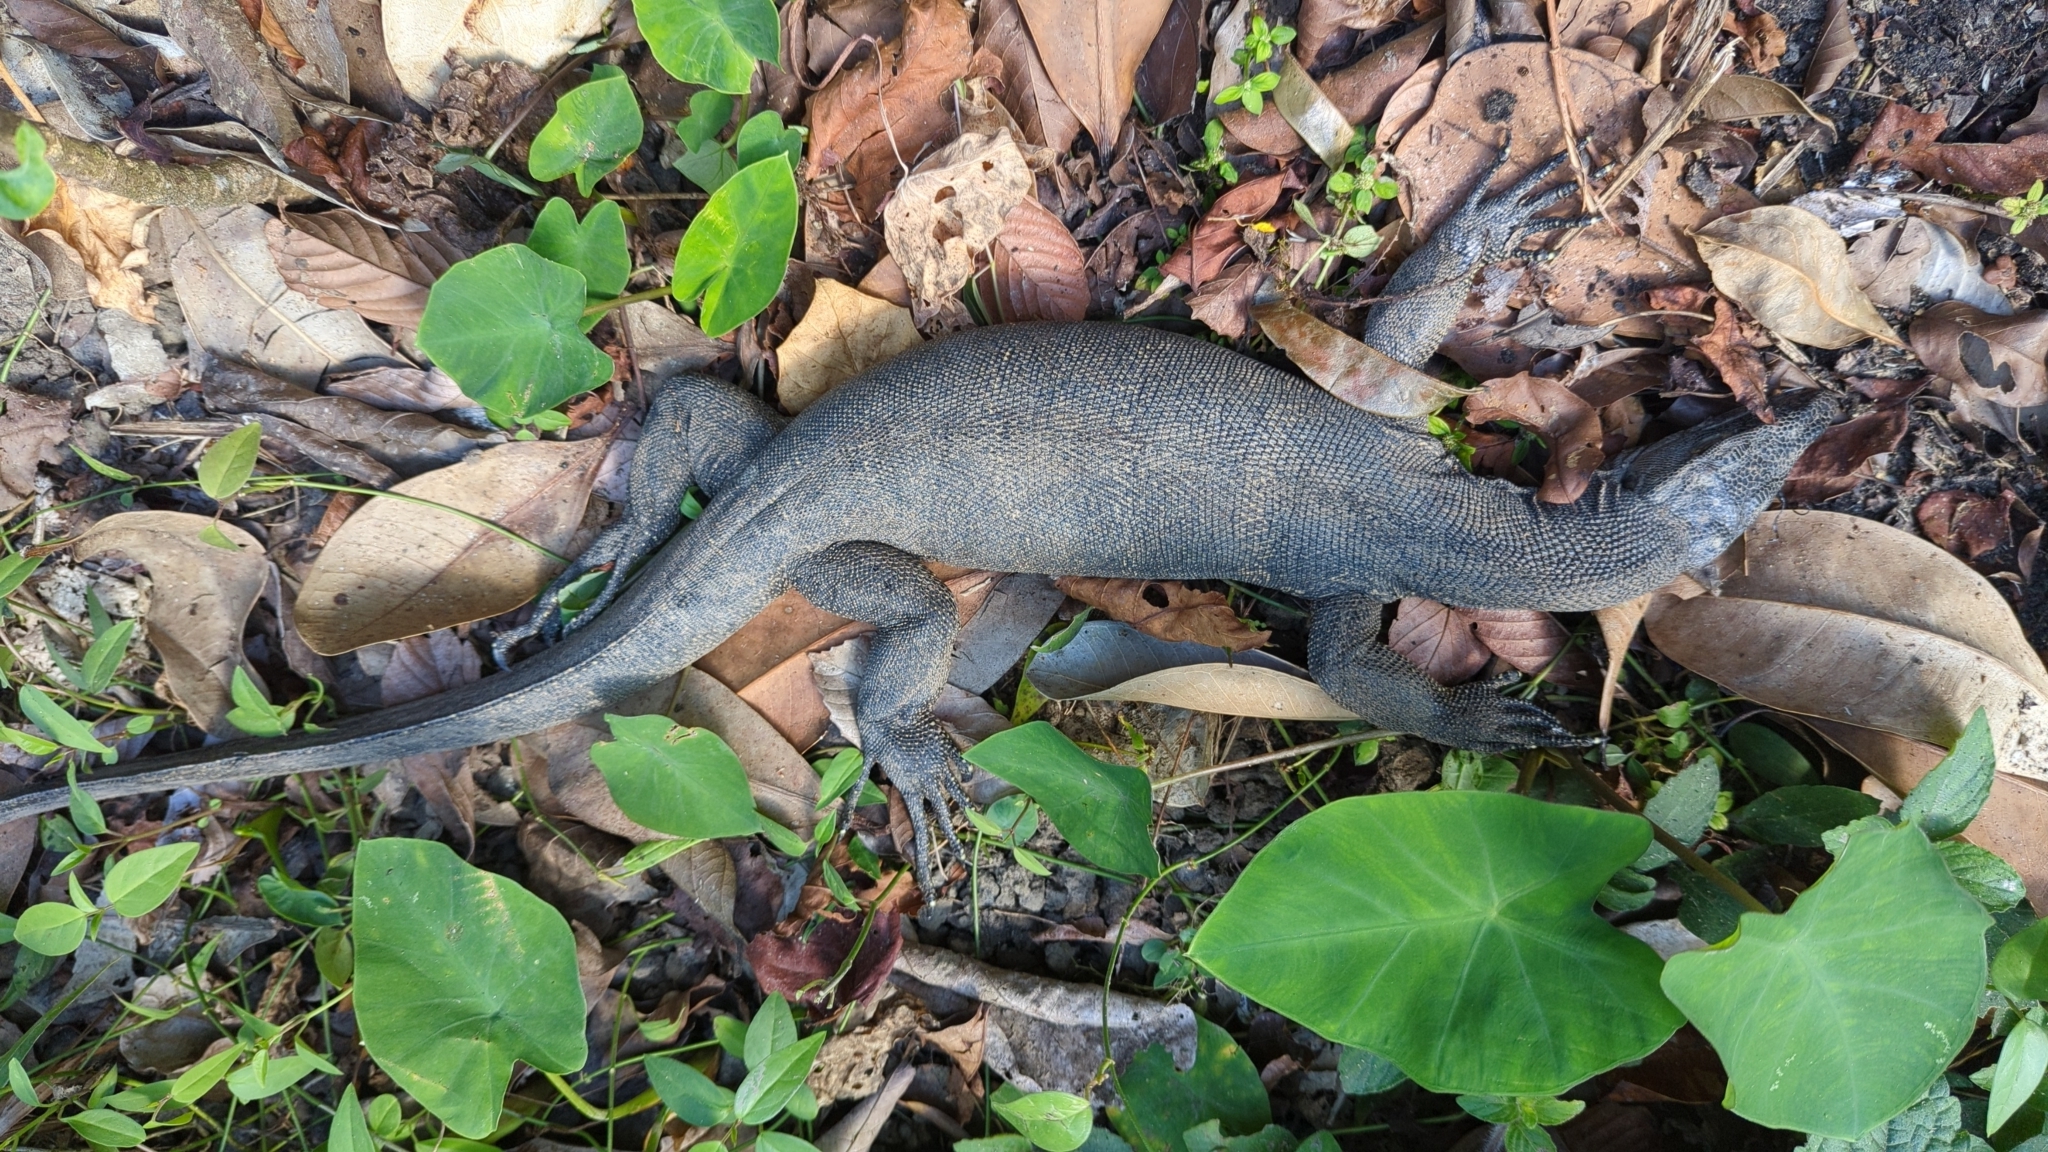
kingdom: Animalia
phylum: Chordata
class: Squamata
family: Varanidae
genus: Varanus
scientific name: Varanus salvator
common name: Common water monitor
